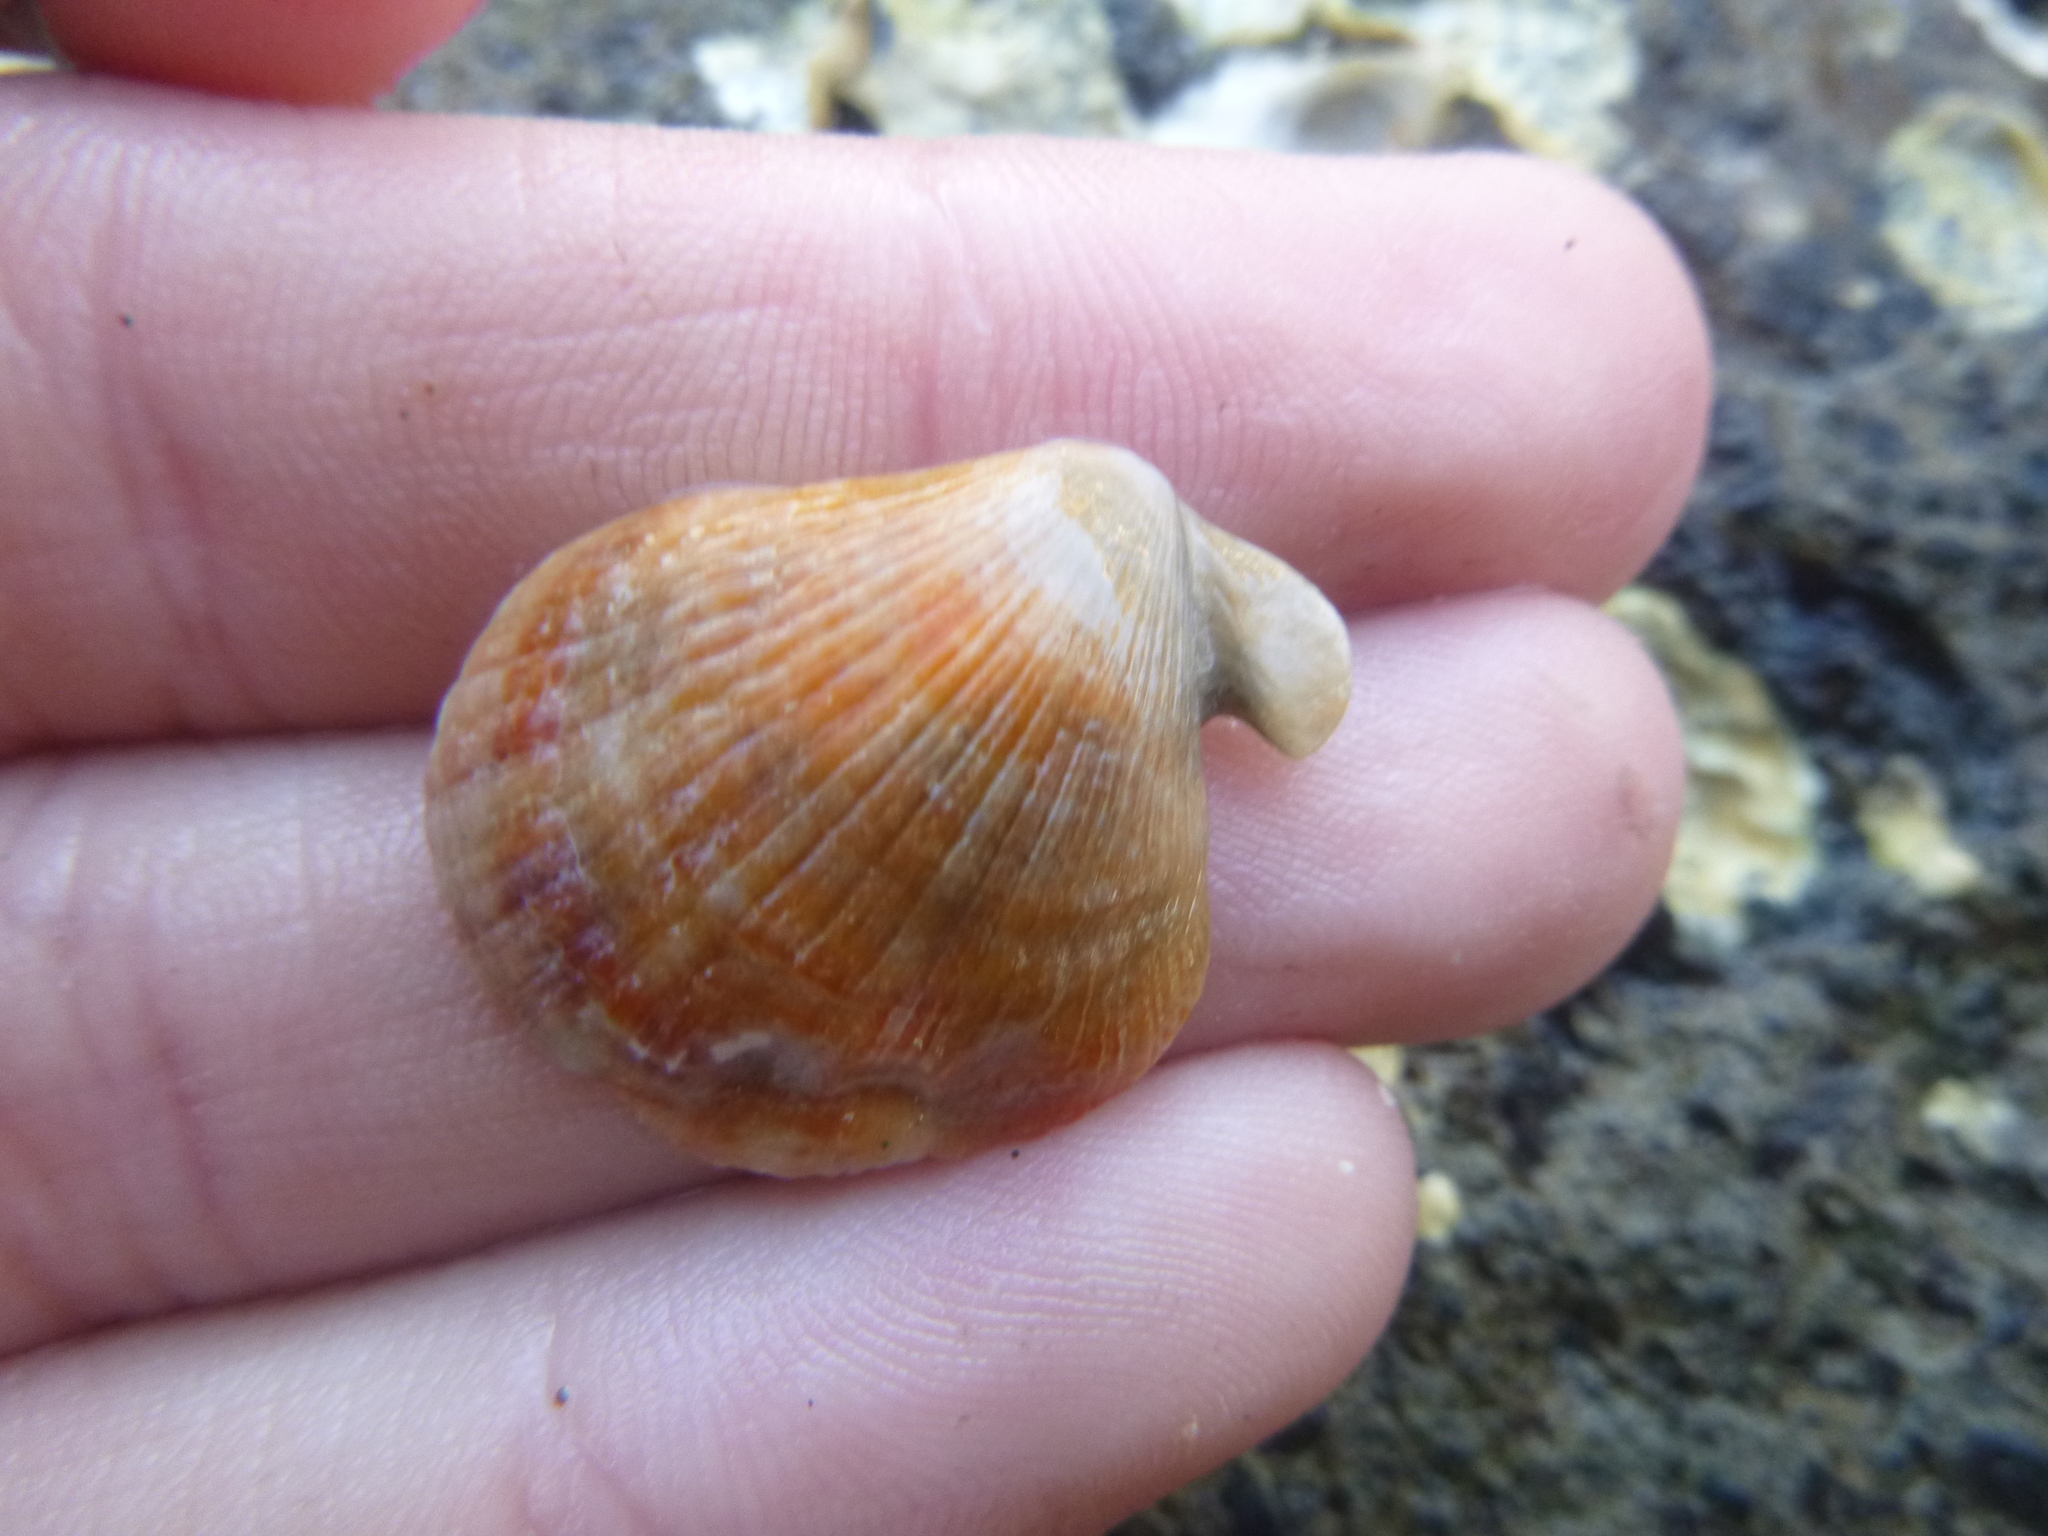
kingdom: Animalia
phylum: Mollusca
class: Bivalvia
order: Pectinida
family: Pectinidae
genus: Talochlamys
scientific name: Talochlamys zelandiae
